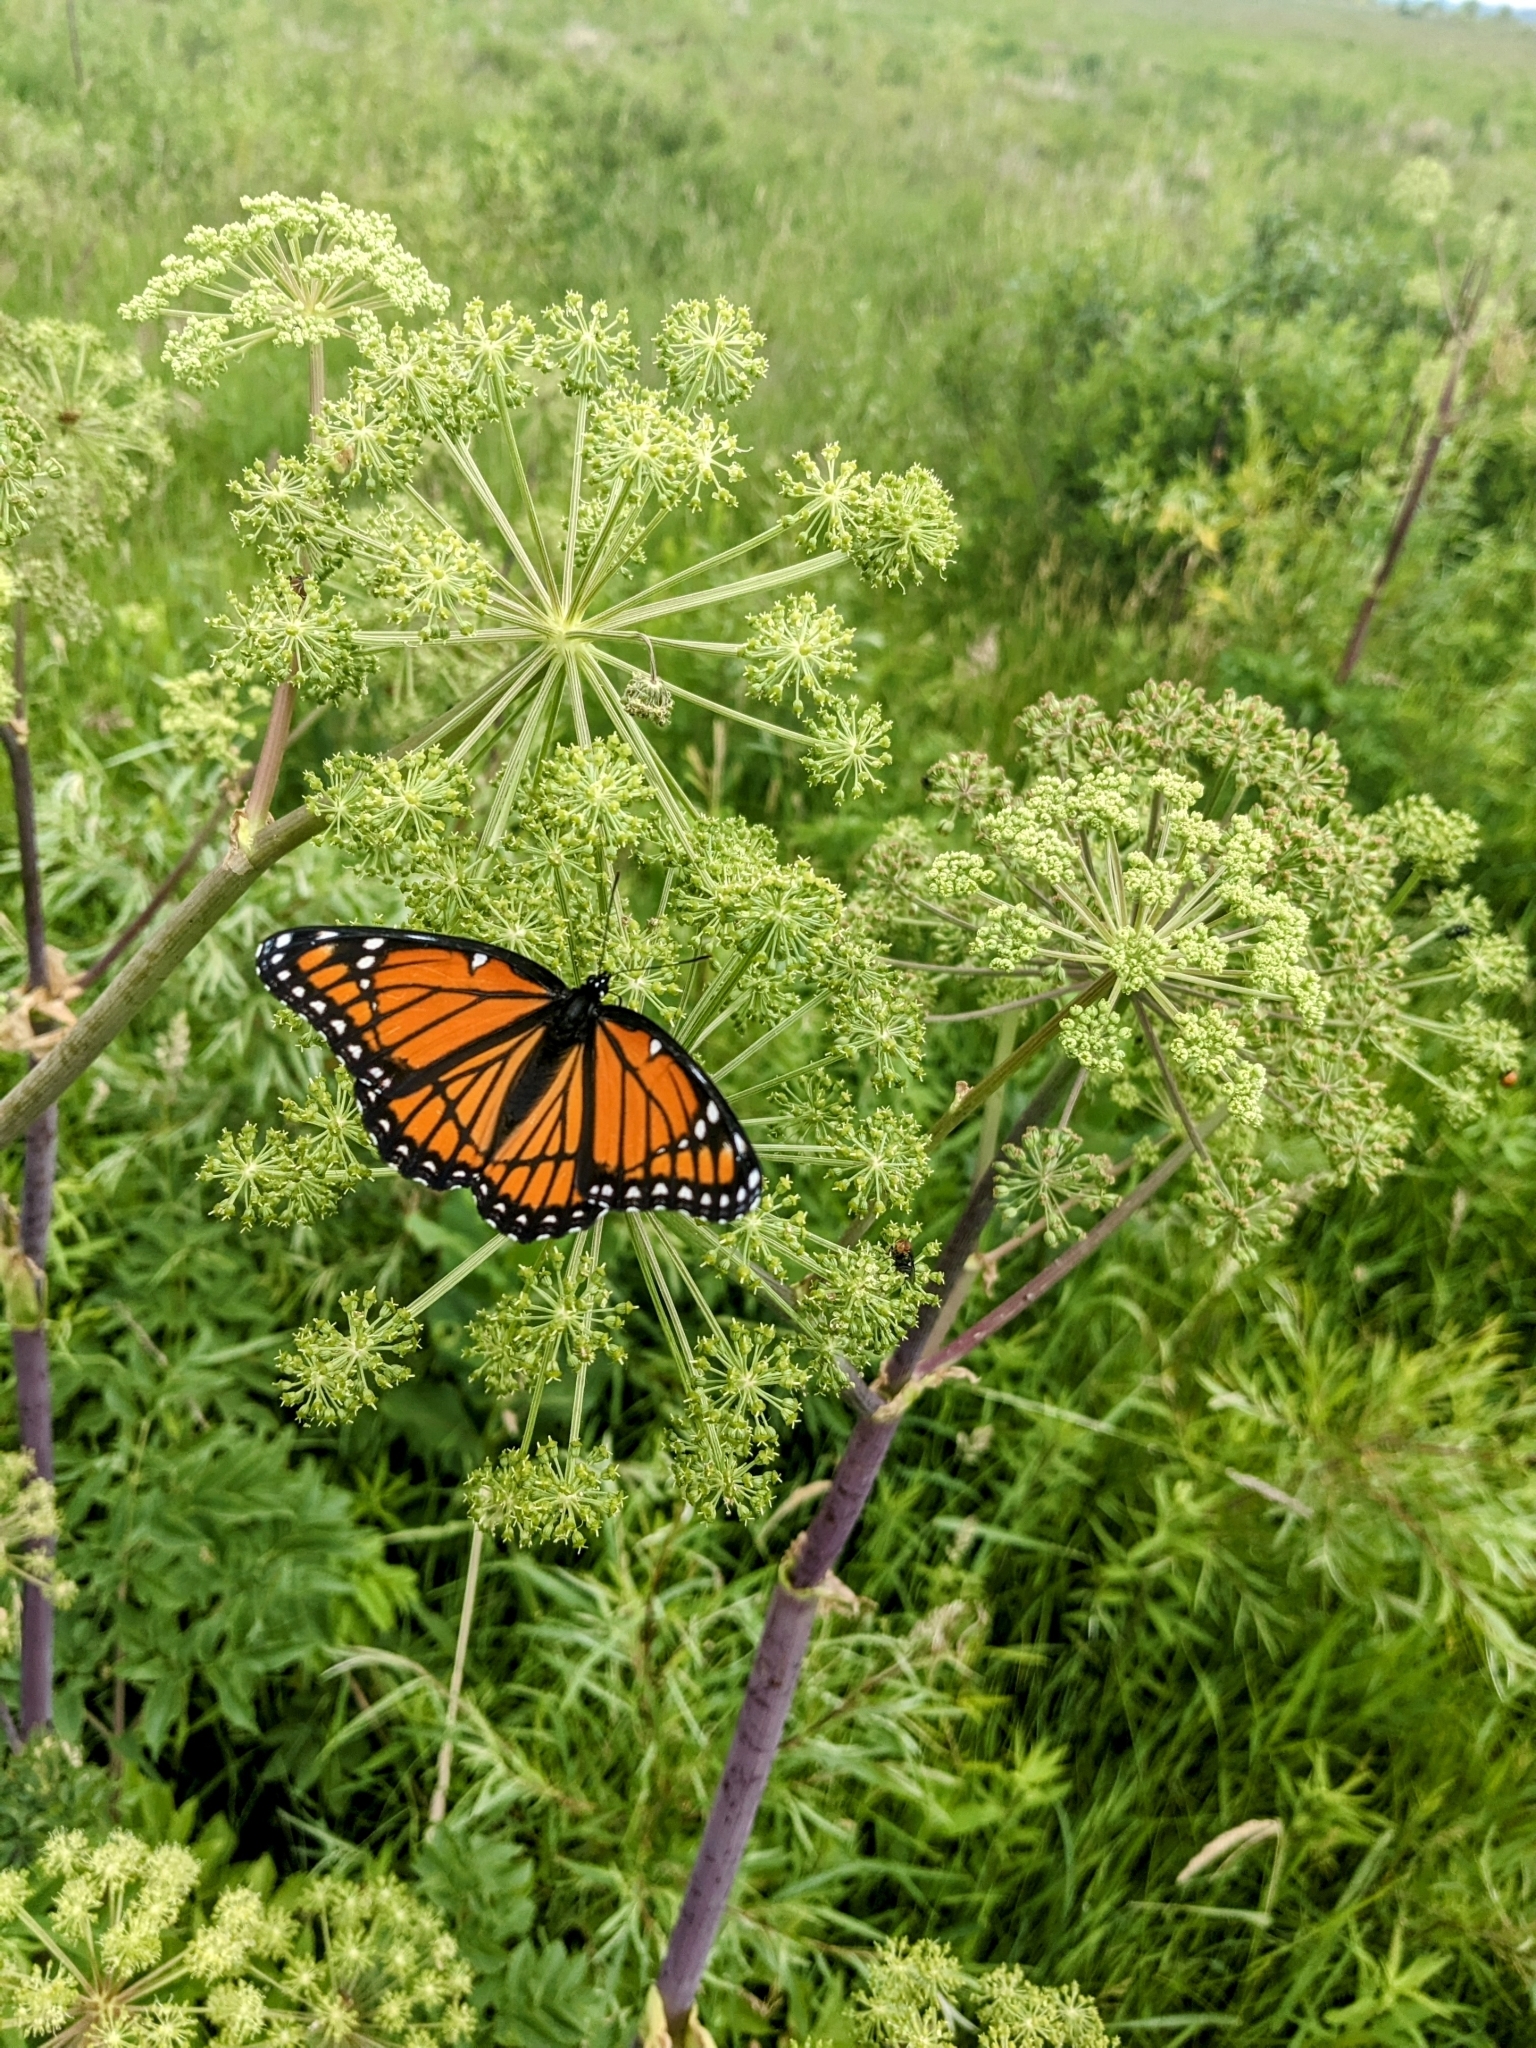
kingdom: Animalia
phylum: Arthropoda
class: Insecta
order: Lepidoptera
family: Nymphalidae
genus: Limenitis
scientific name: Limenitis archippus
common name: Viceroy
